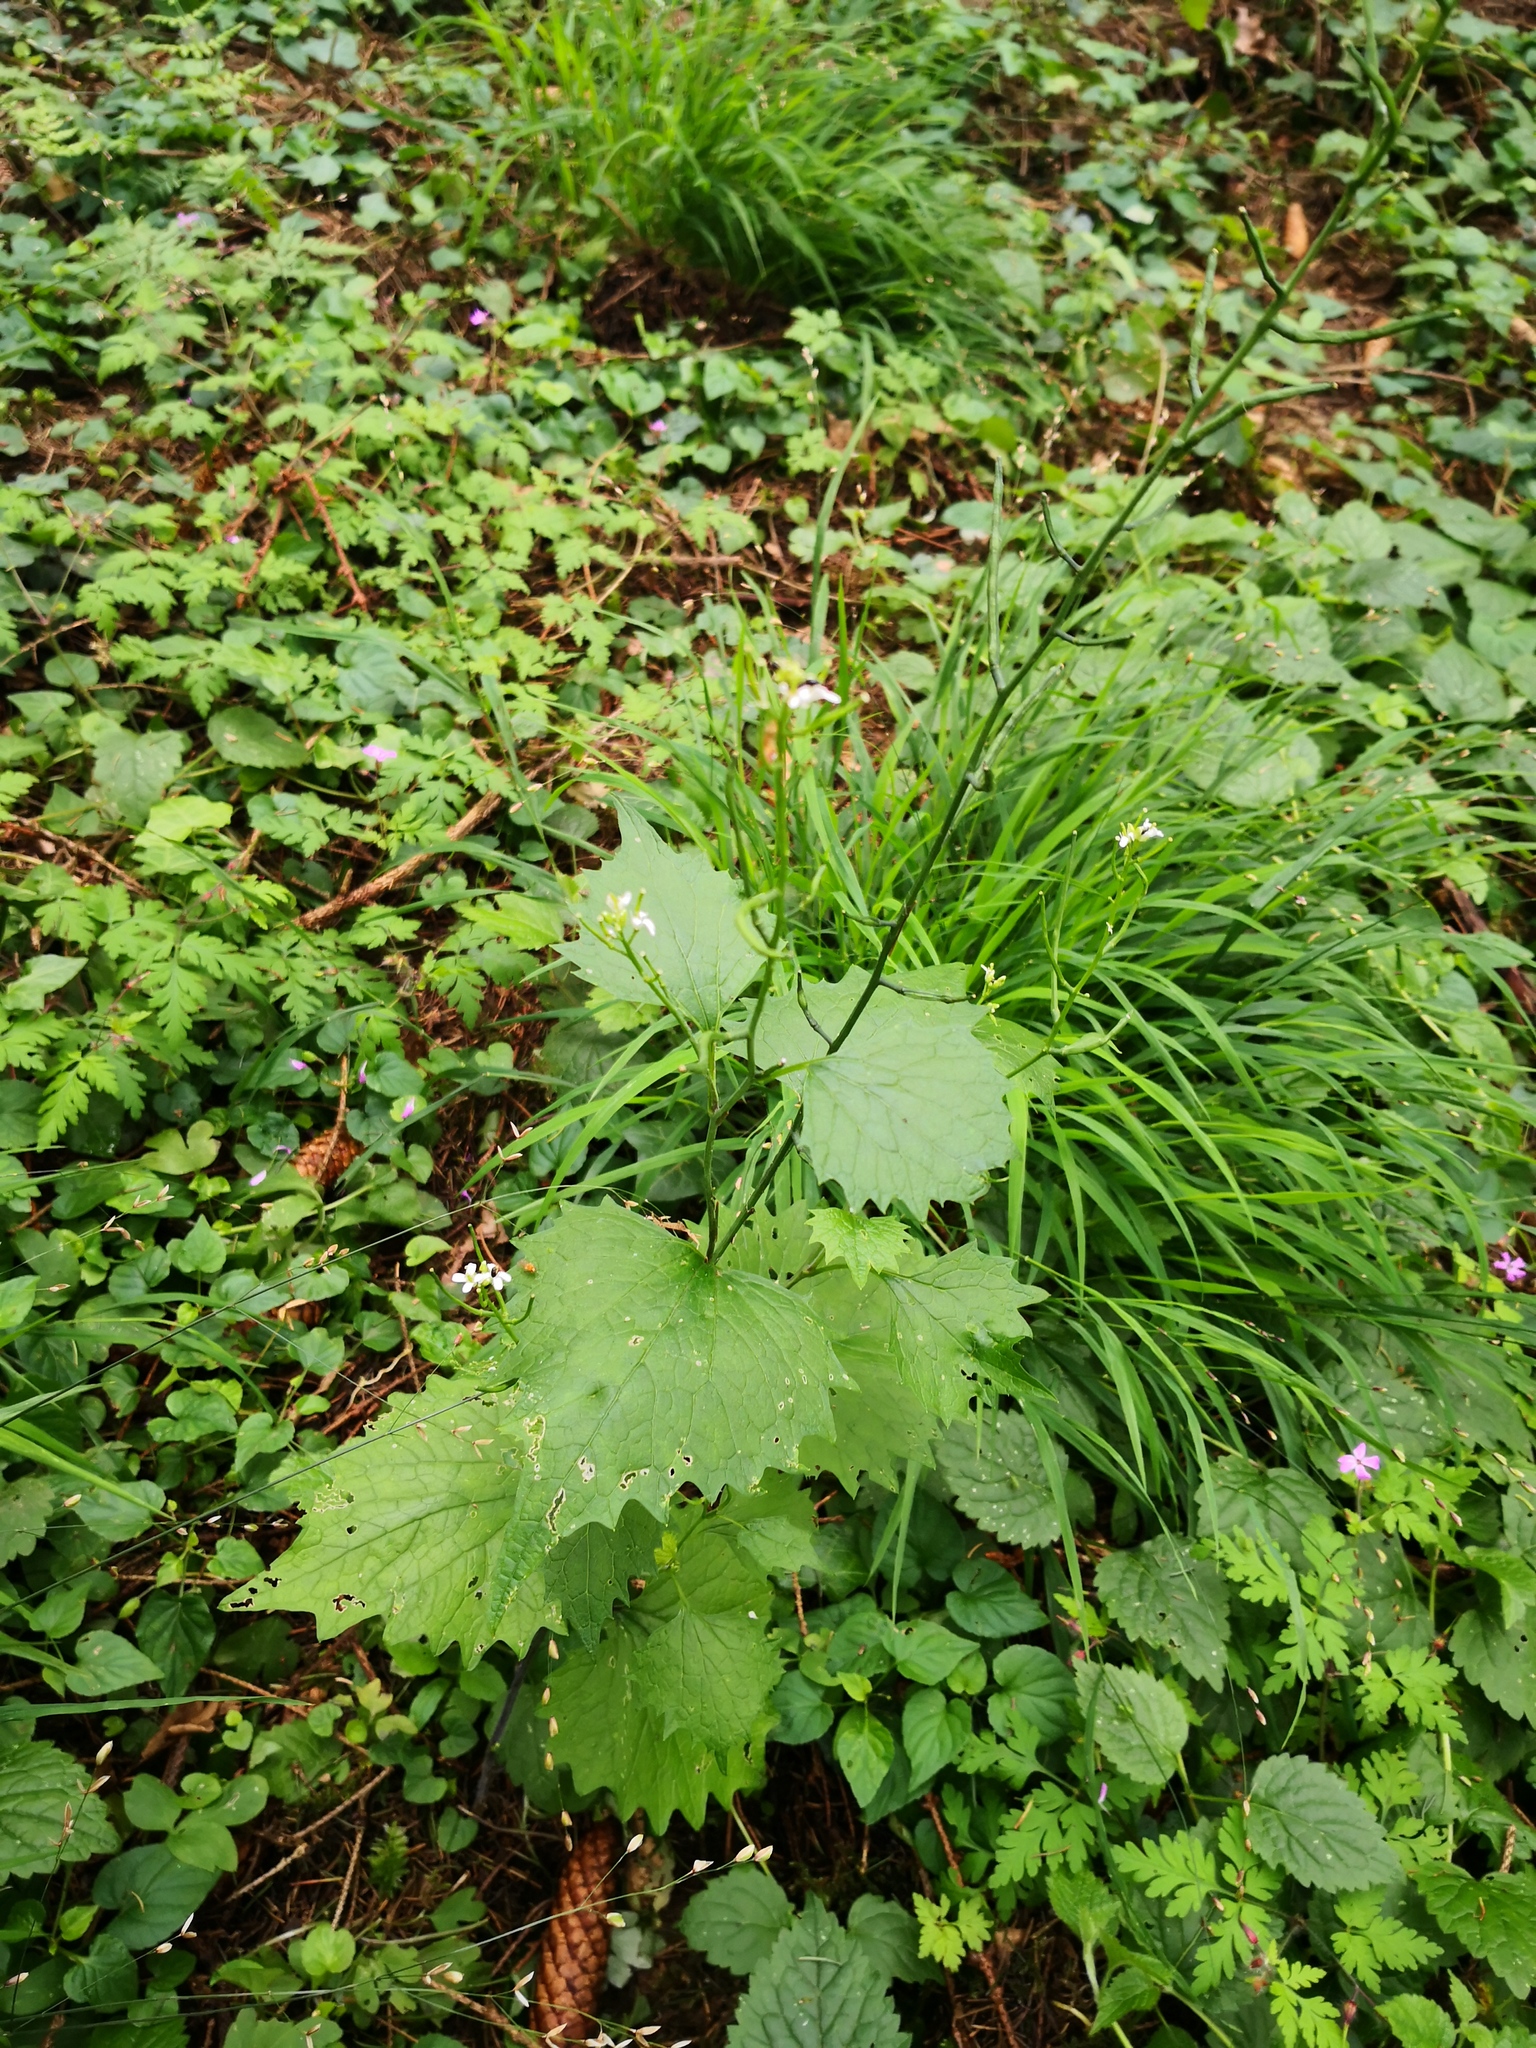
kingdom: Plantae
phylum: Tracheophyta
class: Magnoliopsida
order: Brassicales
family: Brassicaceae
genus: Alliaria
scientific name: Alliaria petiolata
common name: Garlic mustard
